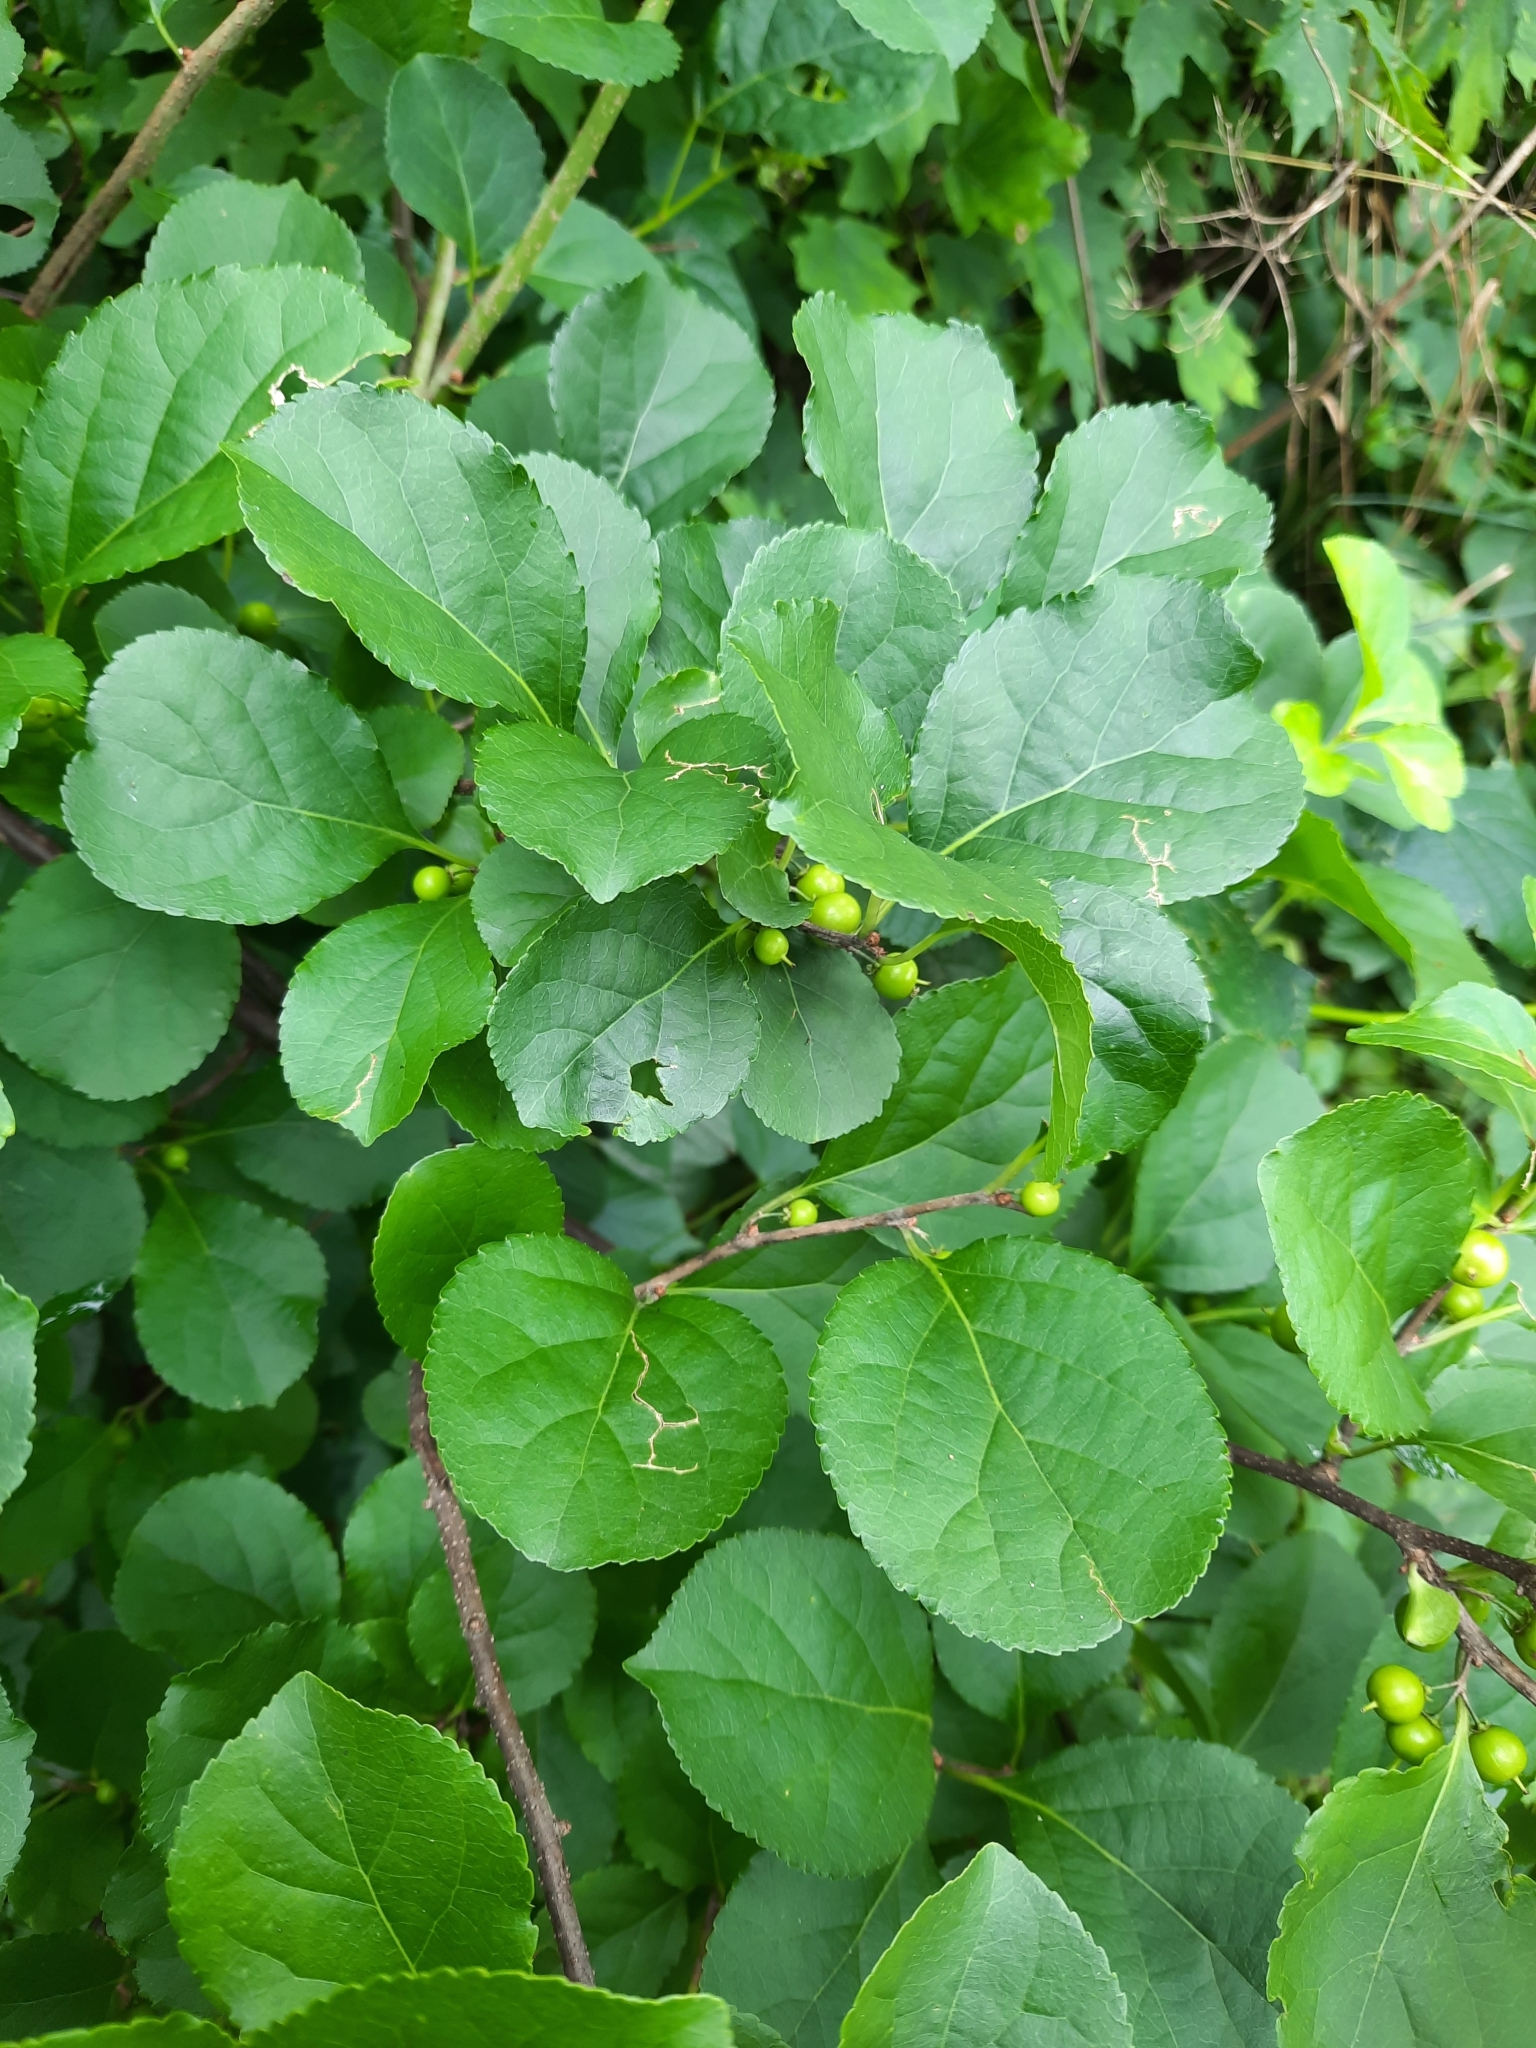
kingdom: Plantae
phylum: Tracheophyta
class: Magnoliopsida
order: Celastrales
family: Celastraceae
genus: Celastrus
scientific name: Celastrus orbiculatus
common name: Oriental bittersweet
